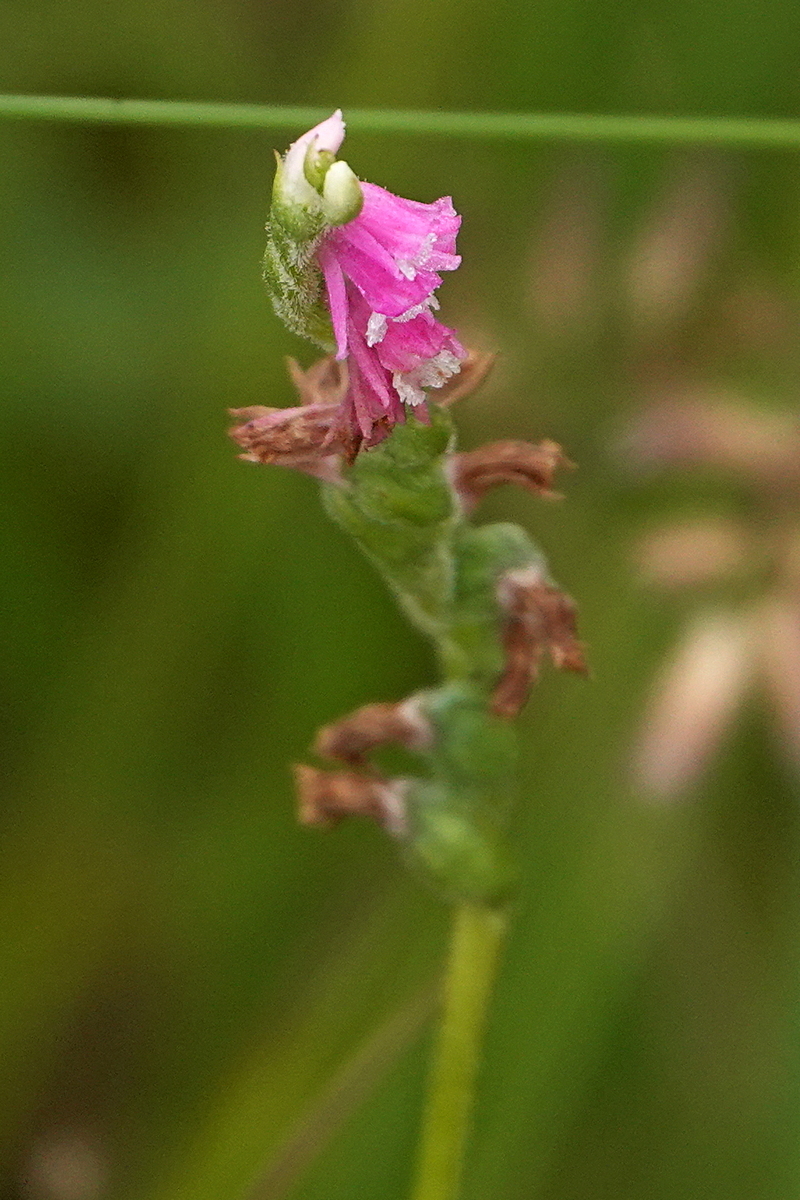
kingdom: Plantae
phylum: Tracheophyta
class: Liliopsida
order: Asparagales
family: Orchidaceae
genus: Spiranthes
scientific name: Spiranthes australis
